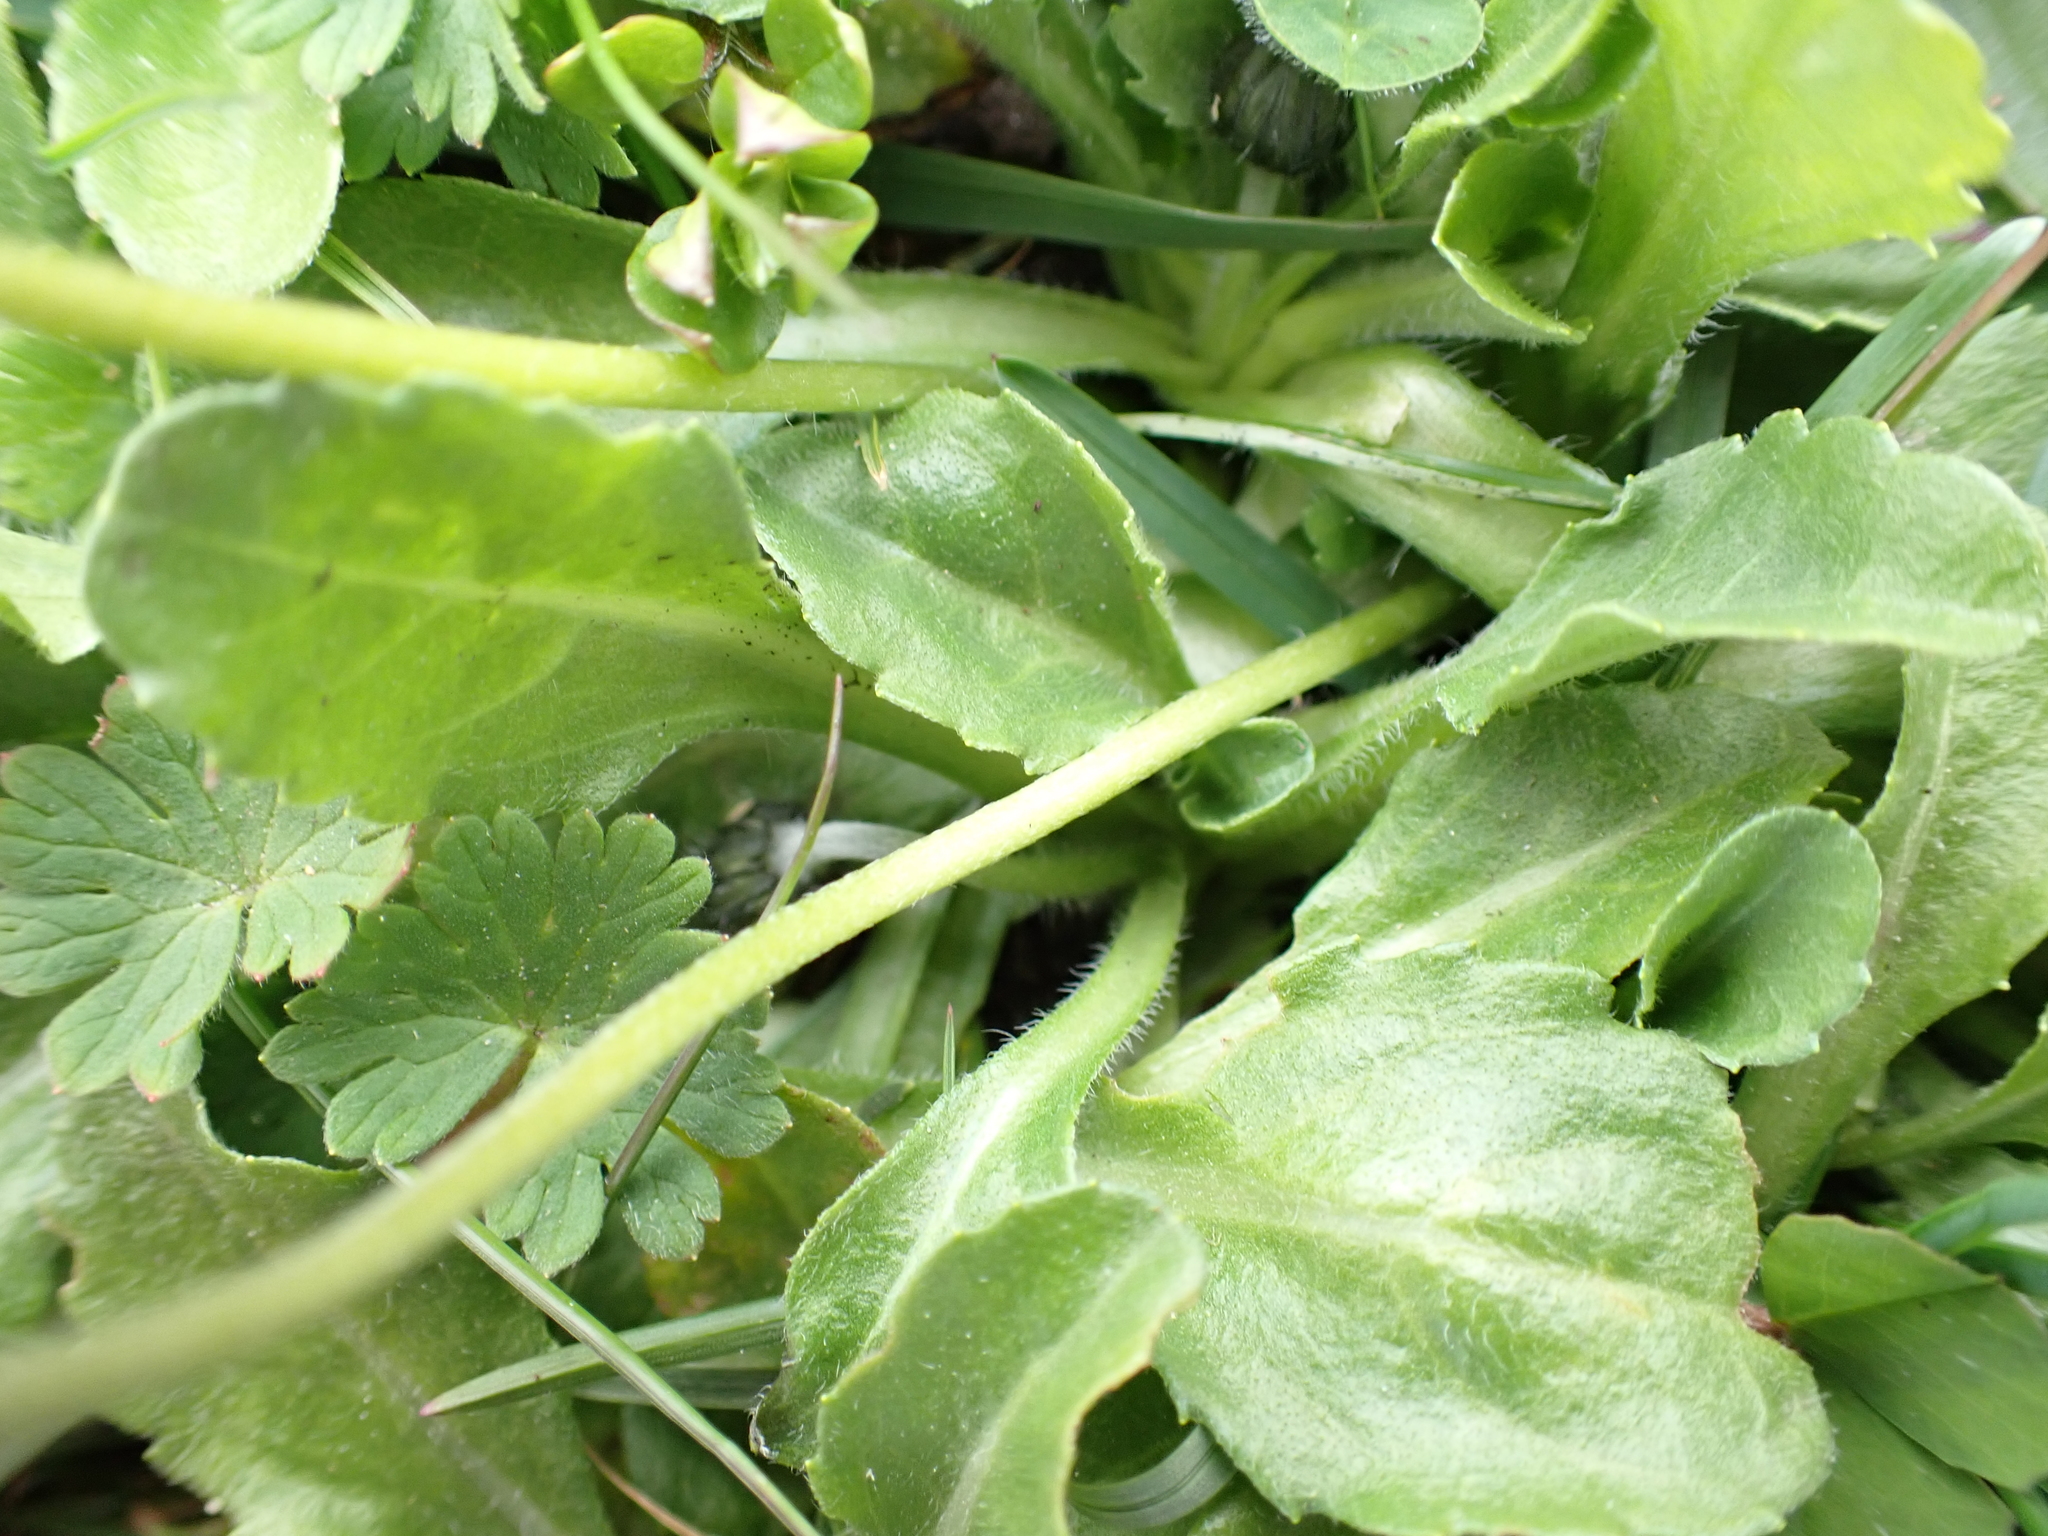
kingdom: Plantae
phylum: Tracheophyta
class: Magnoliopsida
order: Asterales
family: Asteraceae
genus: Bellis
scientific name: Bellis perennis
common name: Lawndaisy
